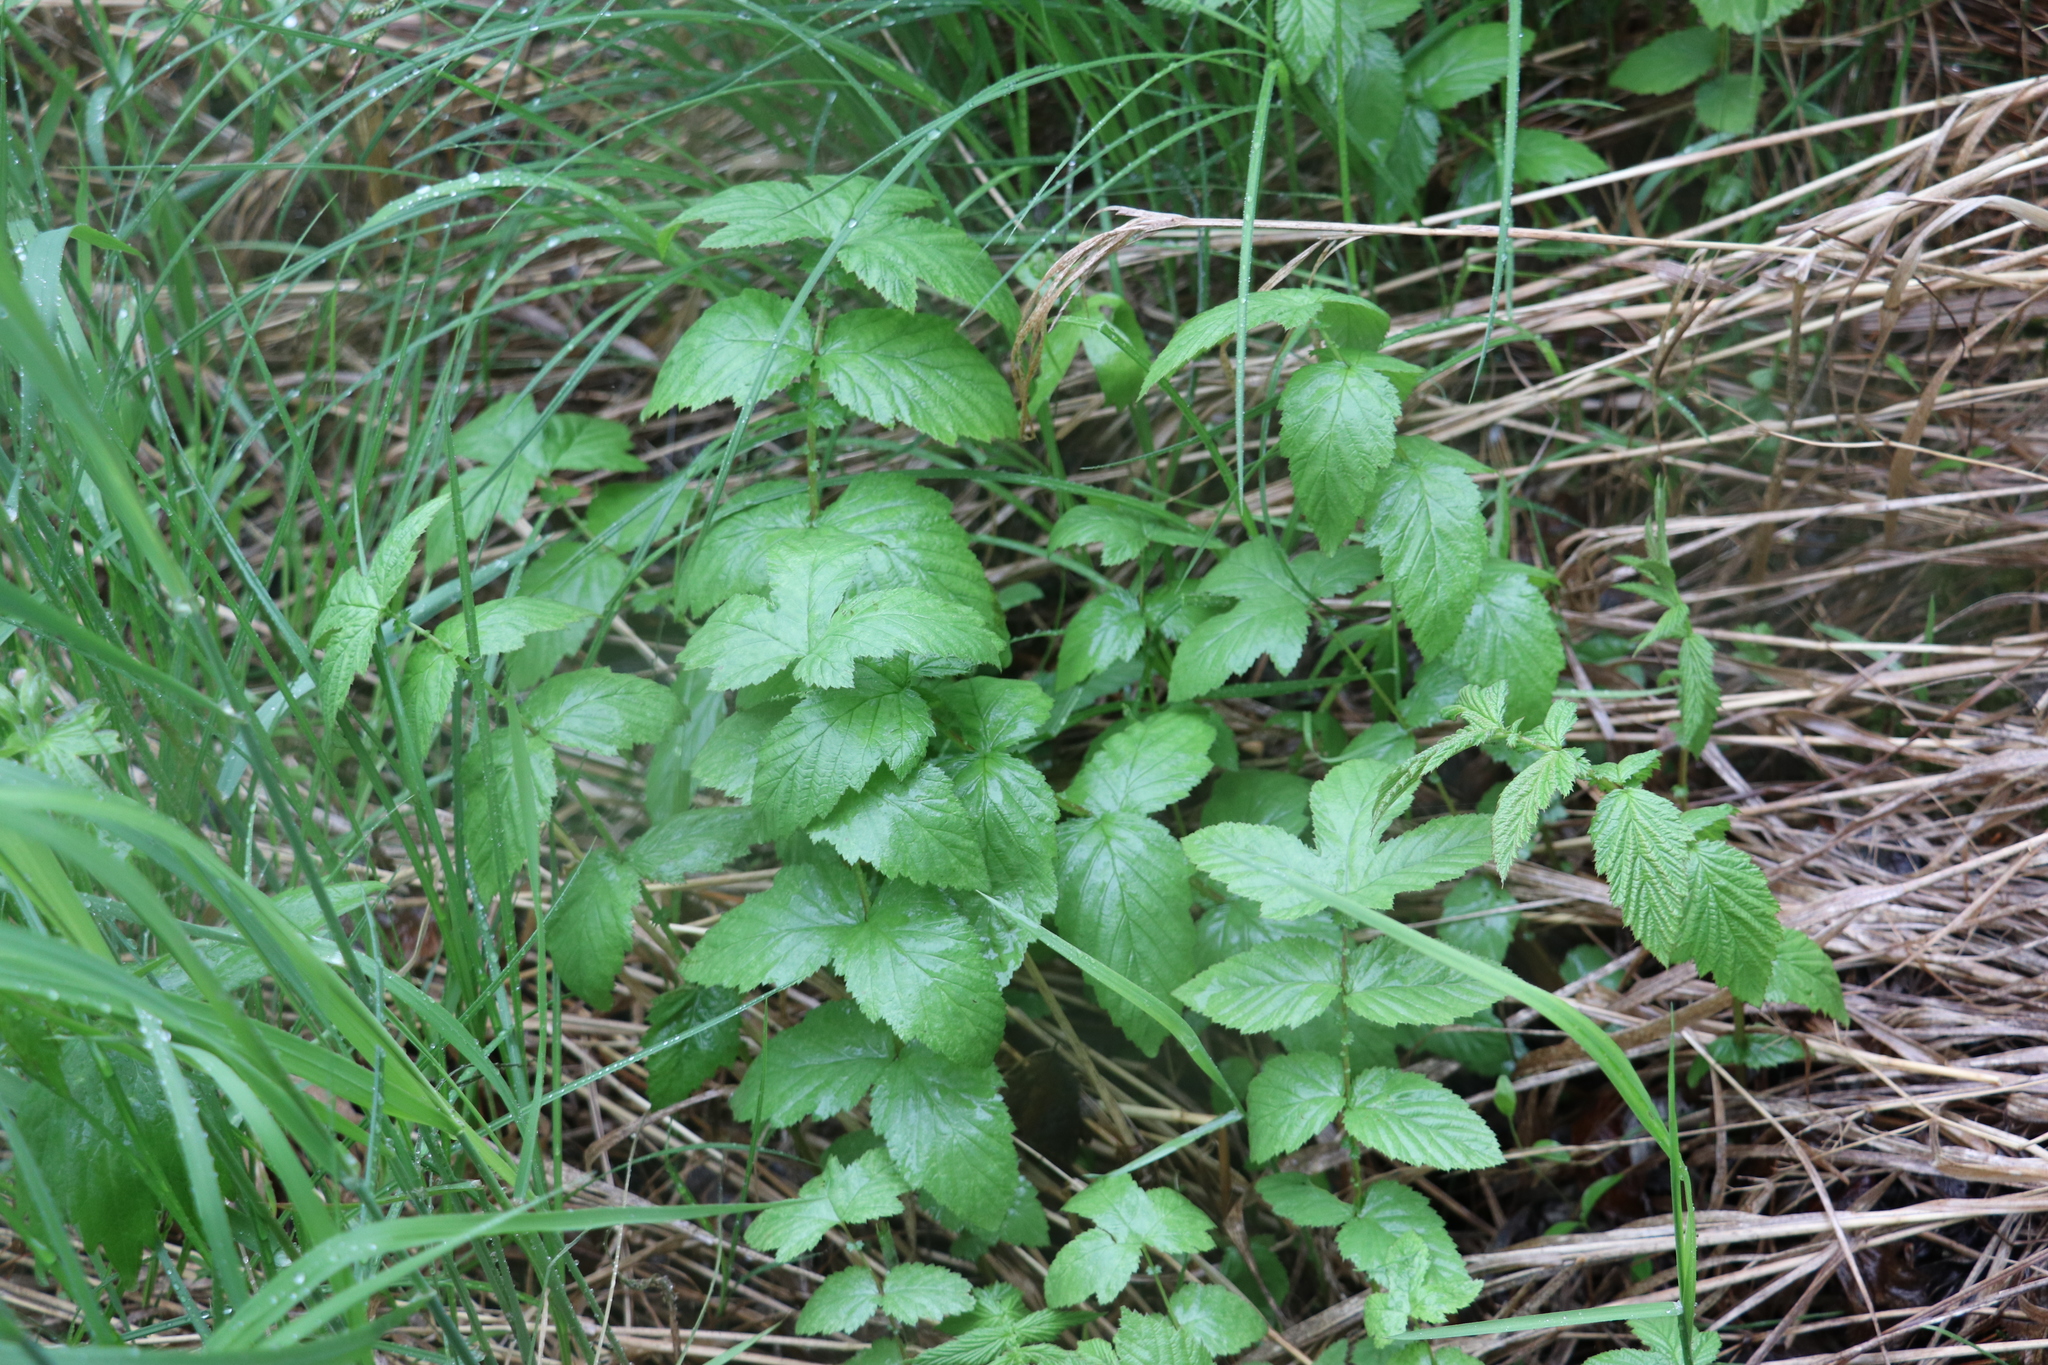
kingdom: Plantae
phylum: Tracheophyta
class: Magnoliopsida
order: Rosales
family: Rosaceae
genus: Filipendula
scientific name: Filipendula ulmaria
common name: Meadowsweet
